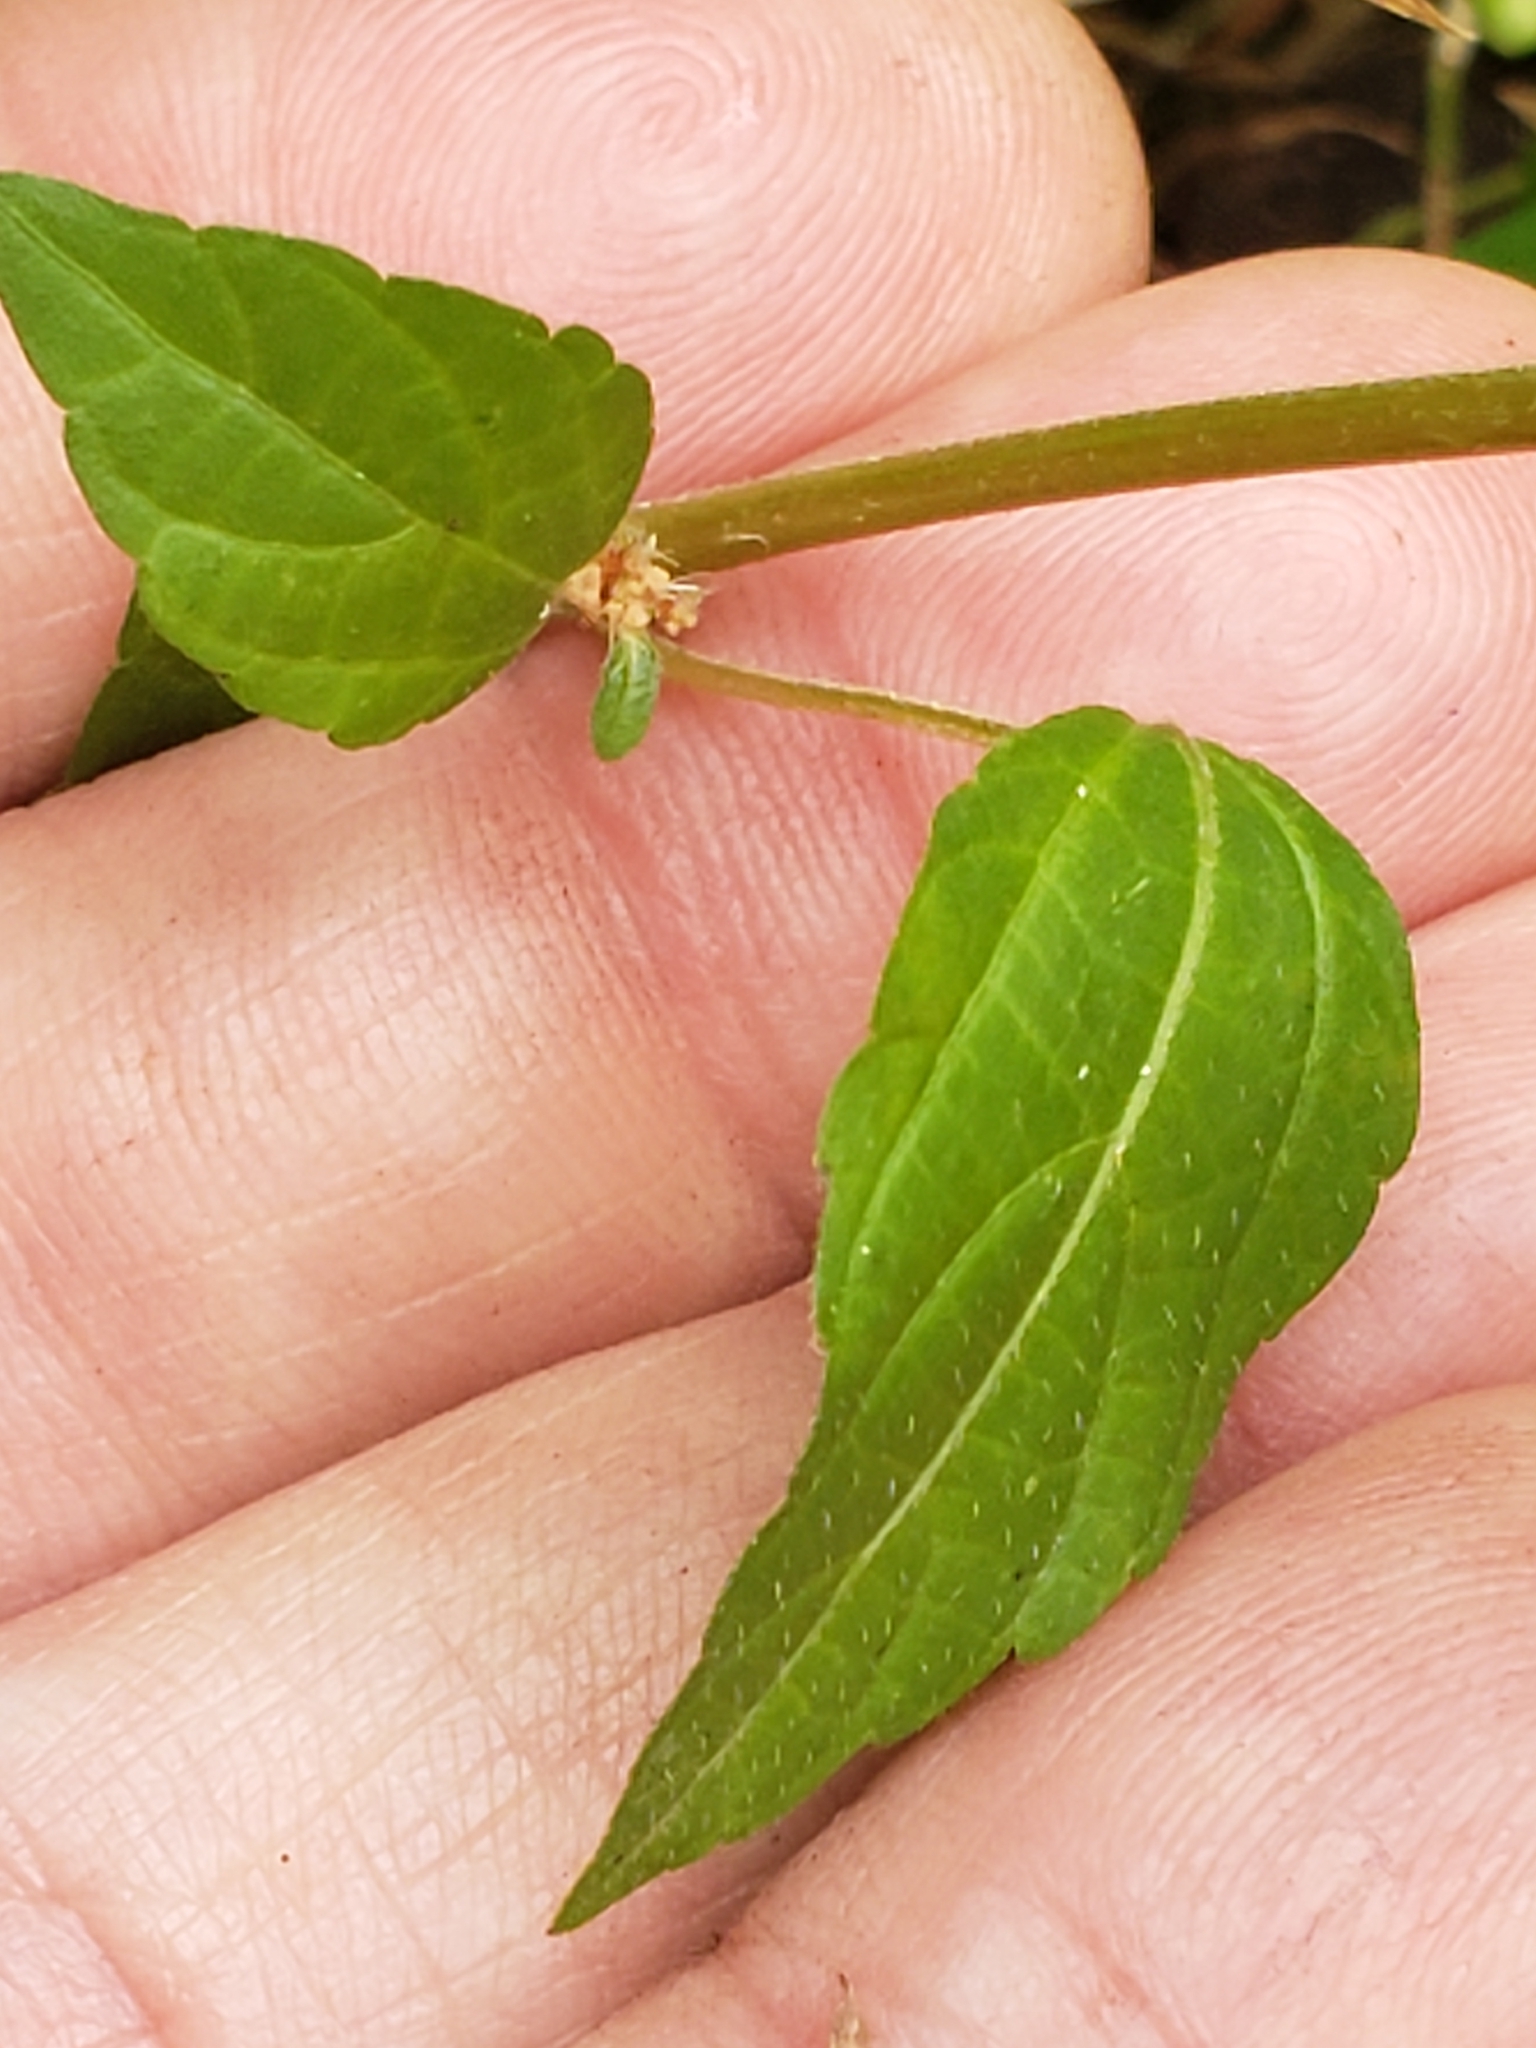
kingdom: Plantae
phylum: Tracheophyta
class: Magnoliopsida
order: Malpighiales
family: Euphorbiaceae
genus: Acalypha
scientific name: Acalypha rhomboidea
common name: Rhombic copperleaf
